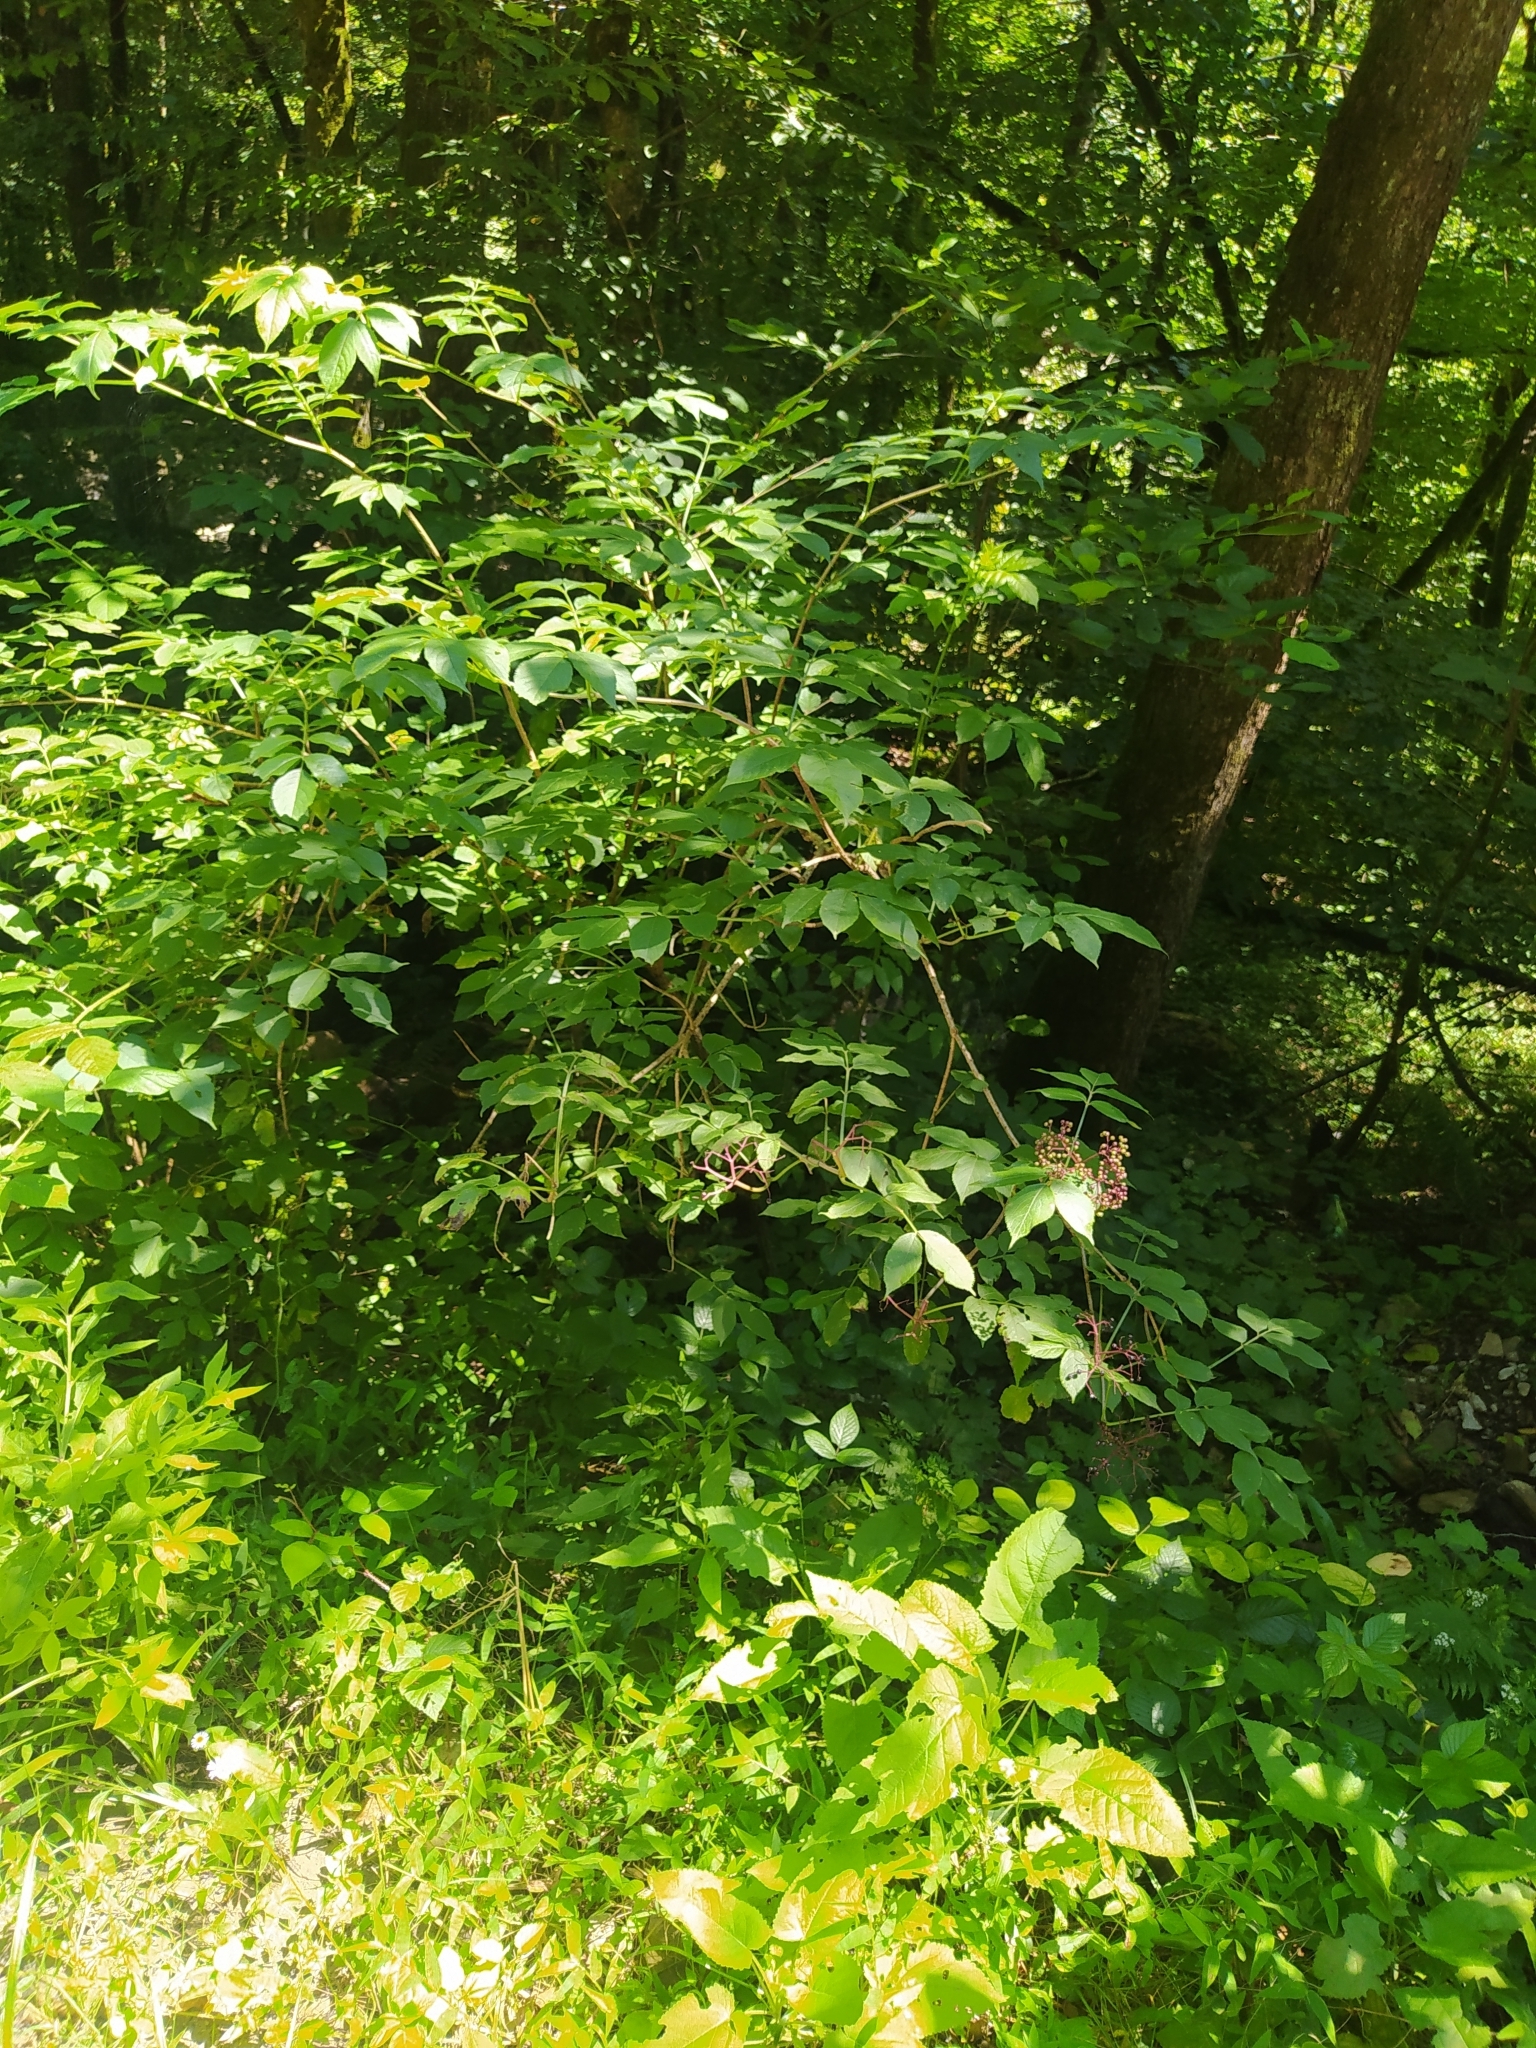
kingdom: Plantae
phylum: Tracheophyta
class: Magnoliopsida
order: Dipsacales
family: Viburnaceae
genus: Sambucus
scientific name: Sambucus nigra
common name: Elder
